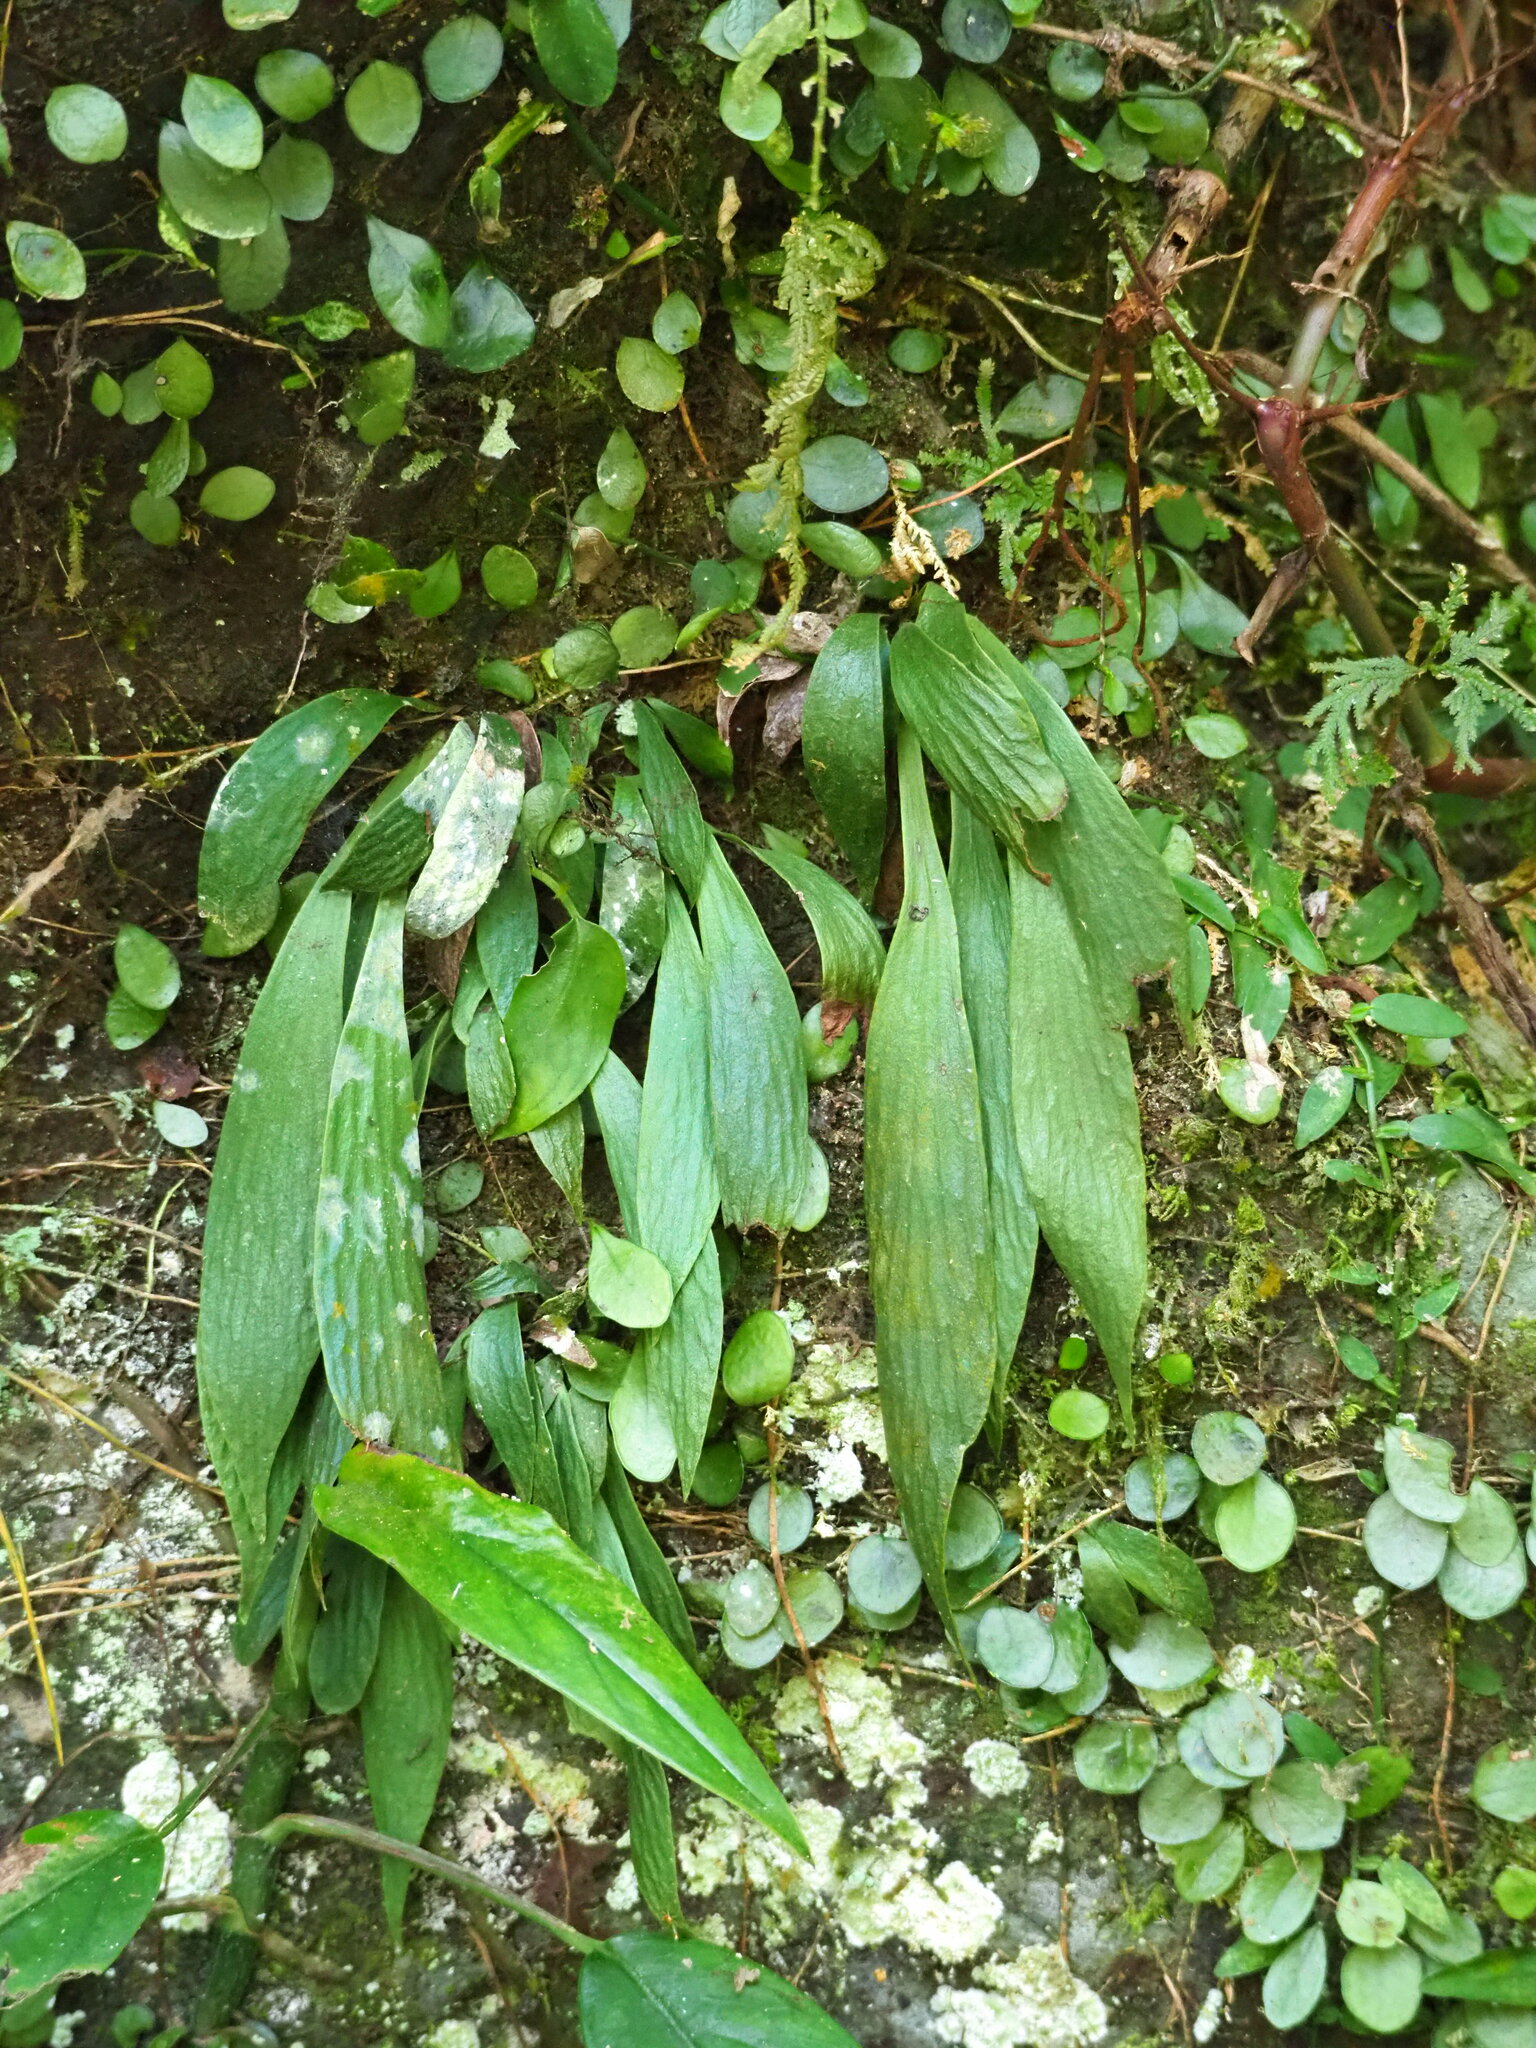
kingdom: Plantae
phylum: Tracheophyta
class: Polypodiopsida
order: Polypodiales
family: Pteridaceae
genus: Antrophyum
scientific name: Antrophyum formosanum
